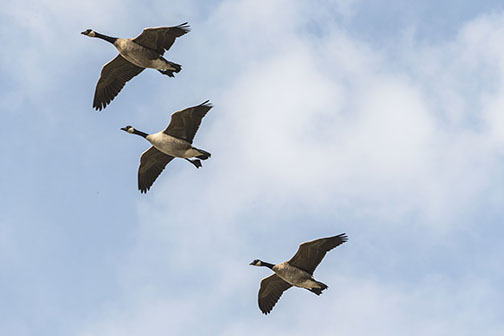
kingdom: Animalia
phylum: Chordata
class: Aves
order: Anseriformes
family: Anatidae
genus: Branta
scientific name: Branta canadensis
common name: Canada goose
